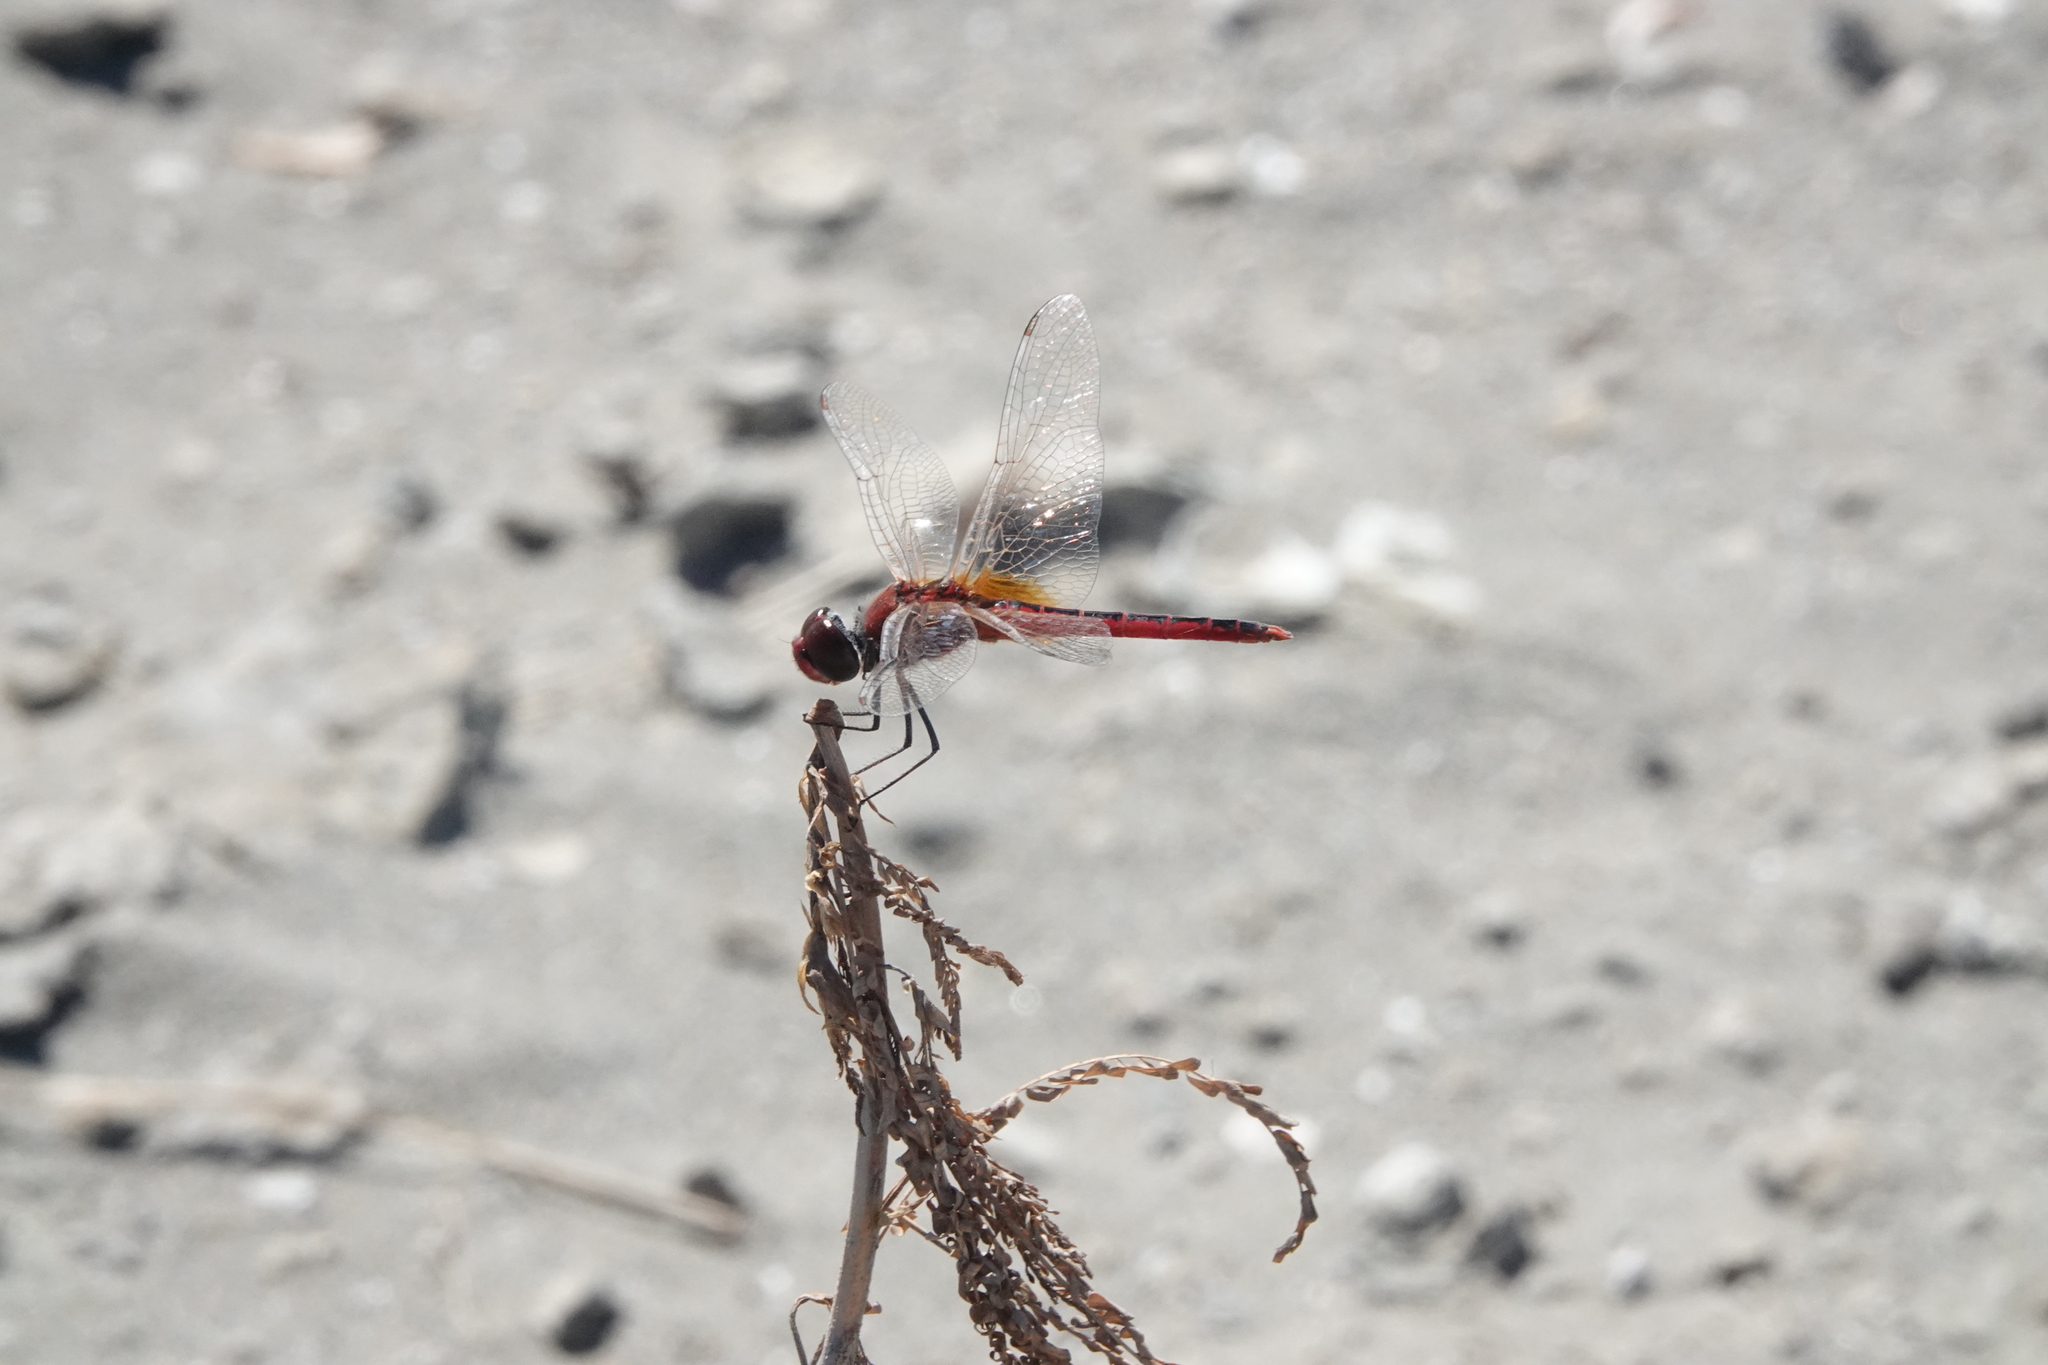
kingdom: Animalia
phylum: Arthropoda
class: Insecta
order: Odonata
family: Libellulidae
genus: Macrodiplax
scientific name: Macrodiplax cora
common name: Coastal glider
